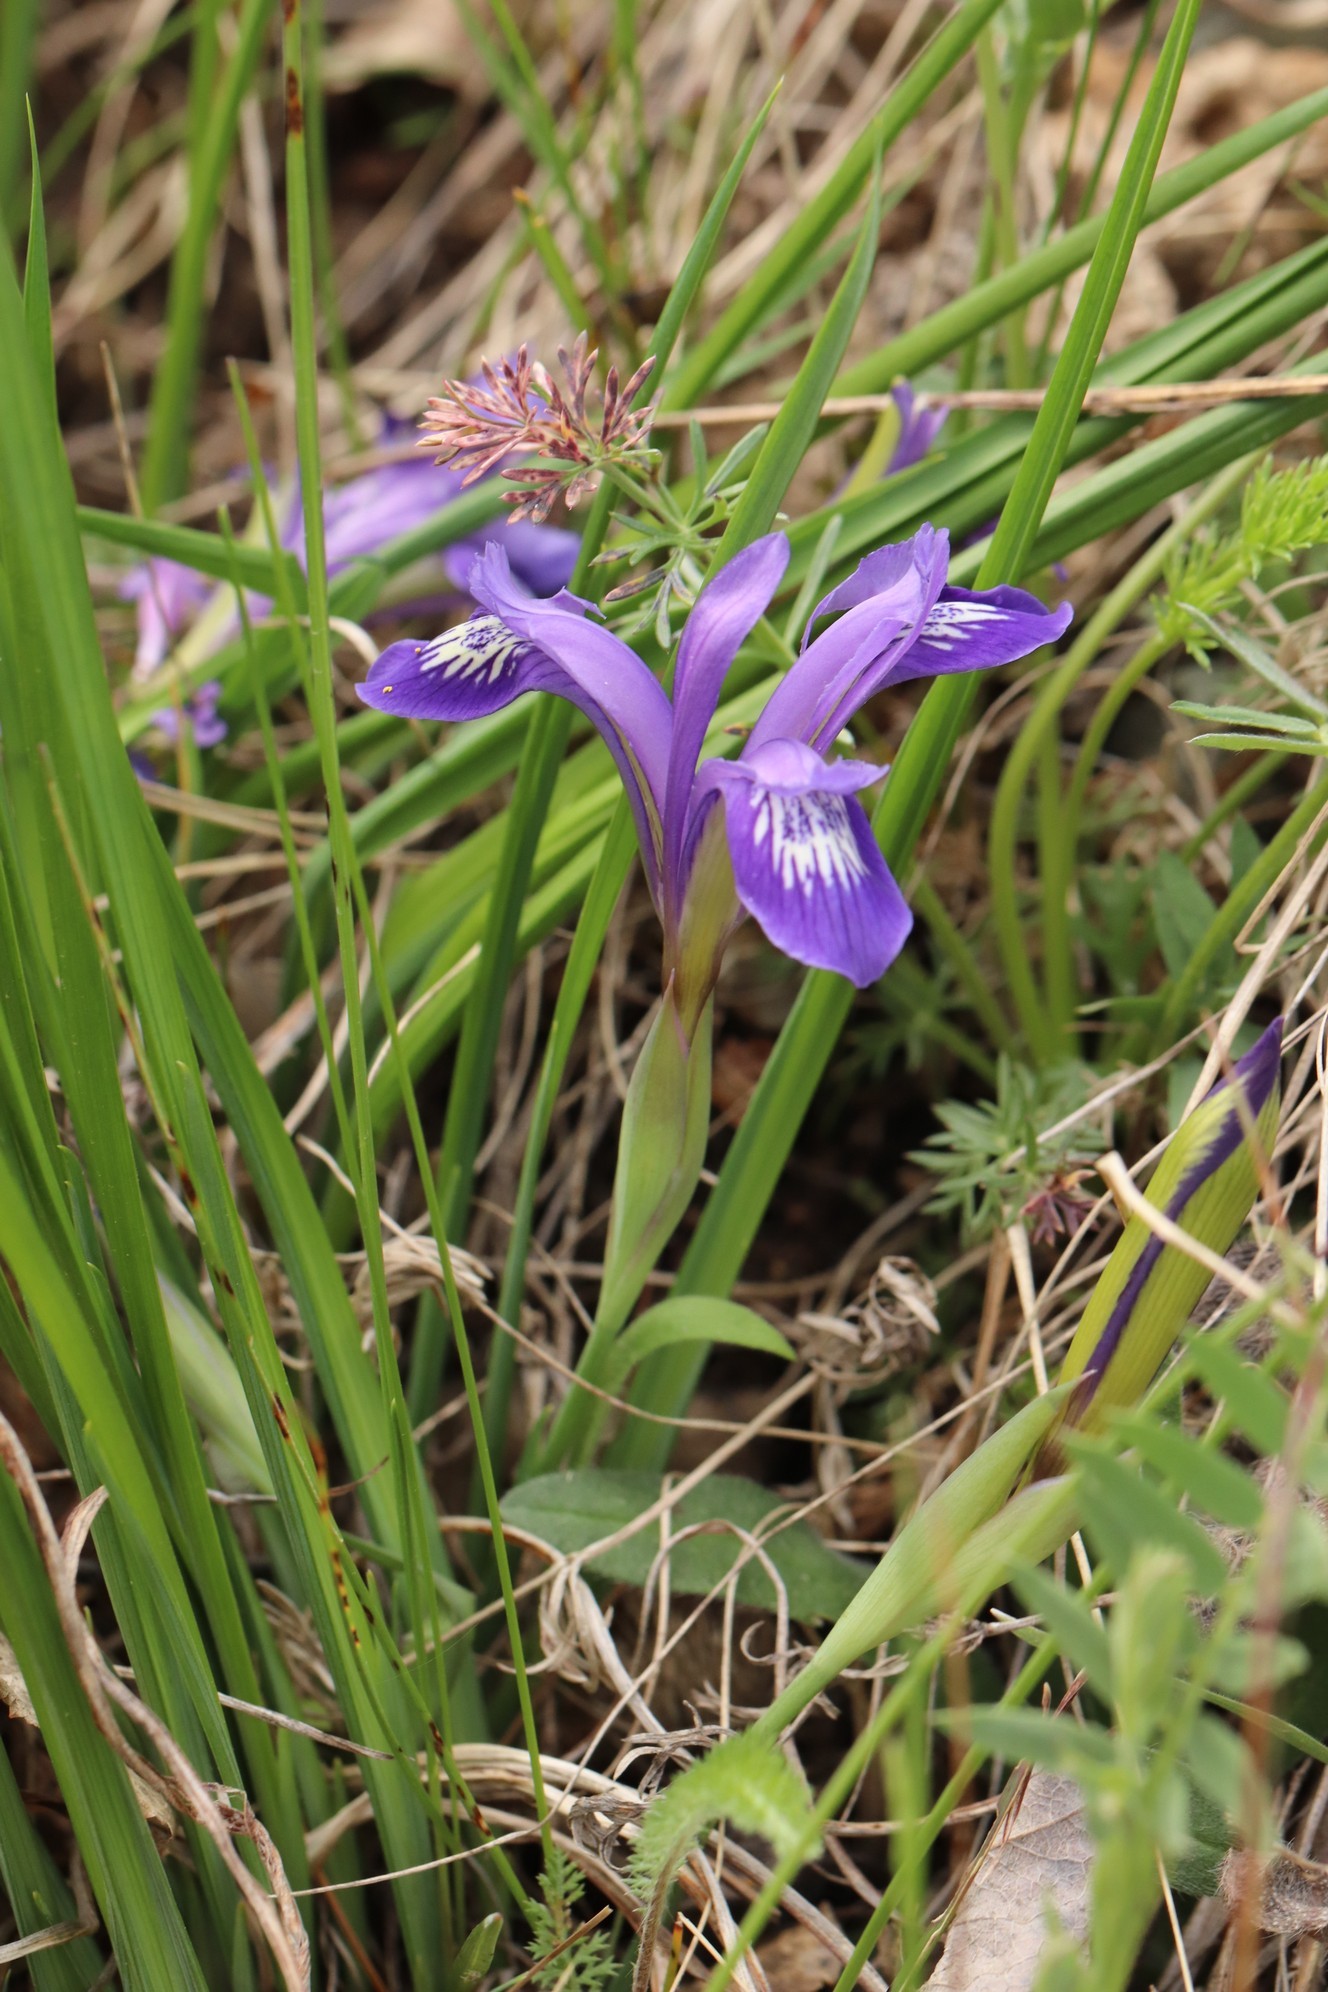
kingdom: Plantae
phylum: Tracheophyta
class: Liliopsida
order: Asparagales
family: Iridaceae
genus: Iris
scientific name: Iris ruthenica
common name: Purple-bract iris
